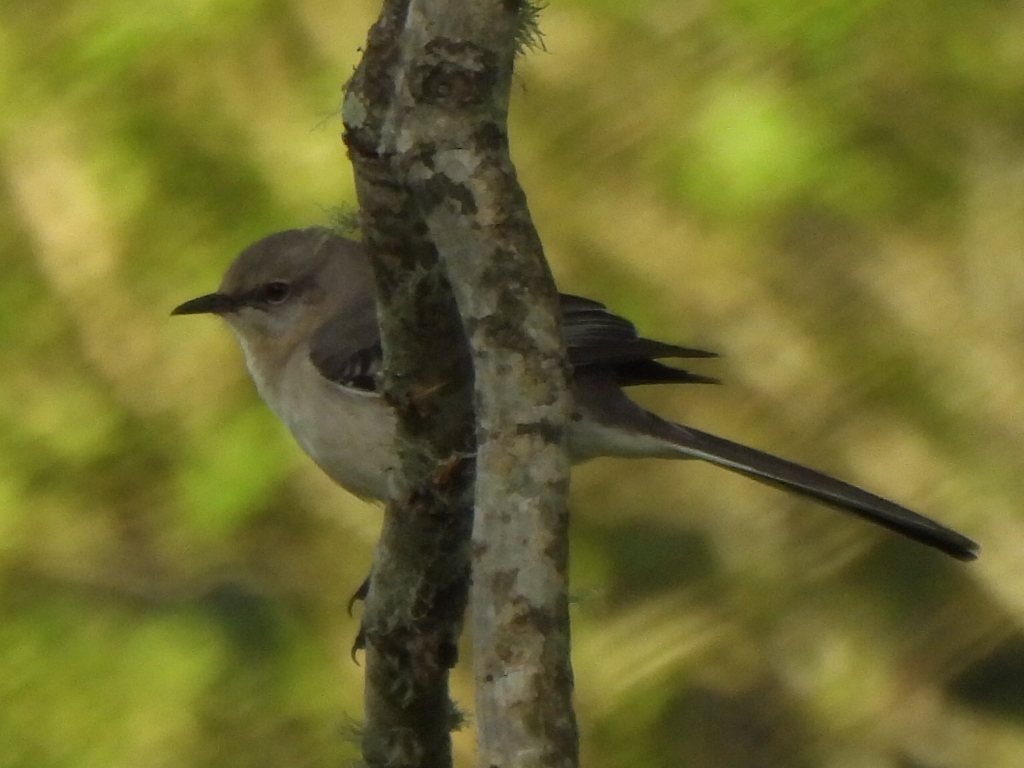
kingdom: Animalia
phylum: Chordata
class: Aves
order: Passeriformes
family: Mimidae
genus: Mimus
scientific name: Mimus polyglottos
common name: Northern mockingbird
